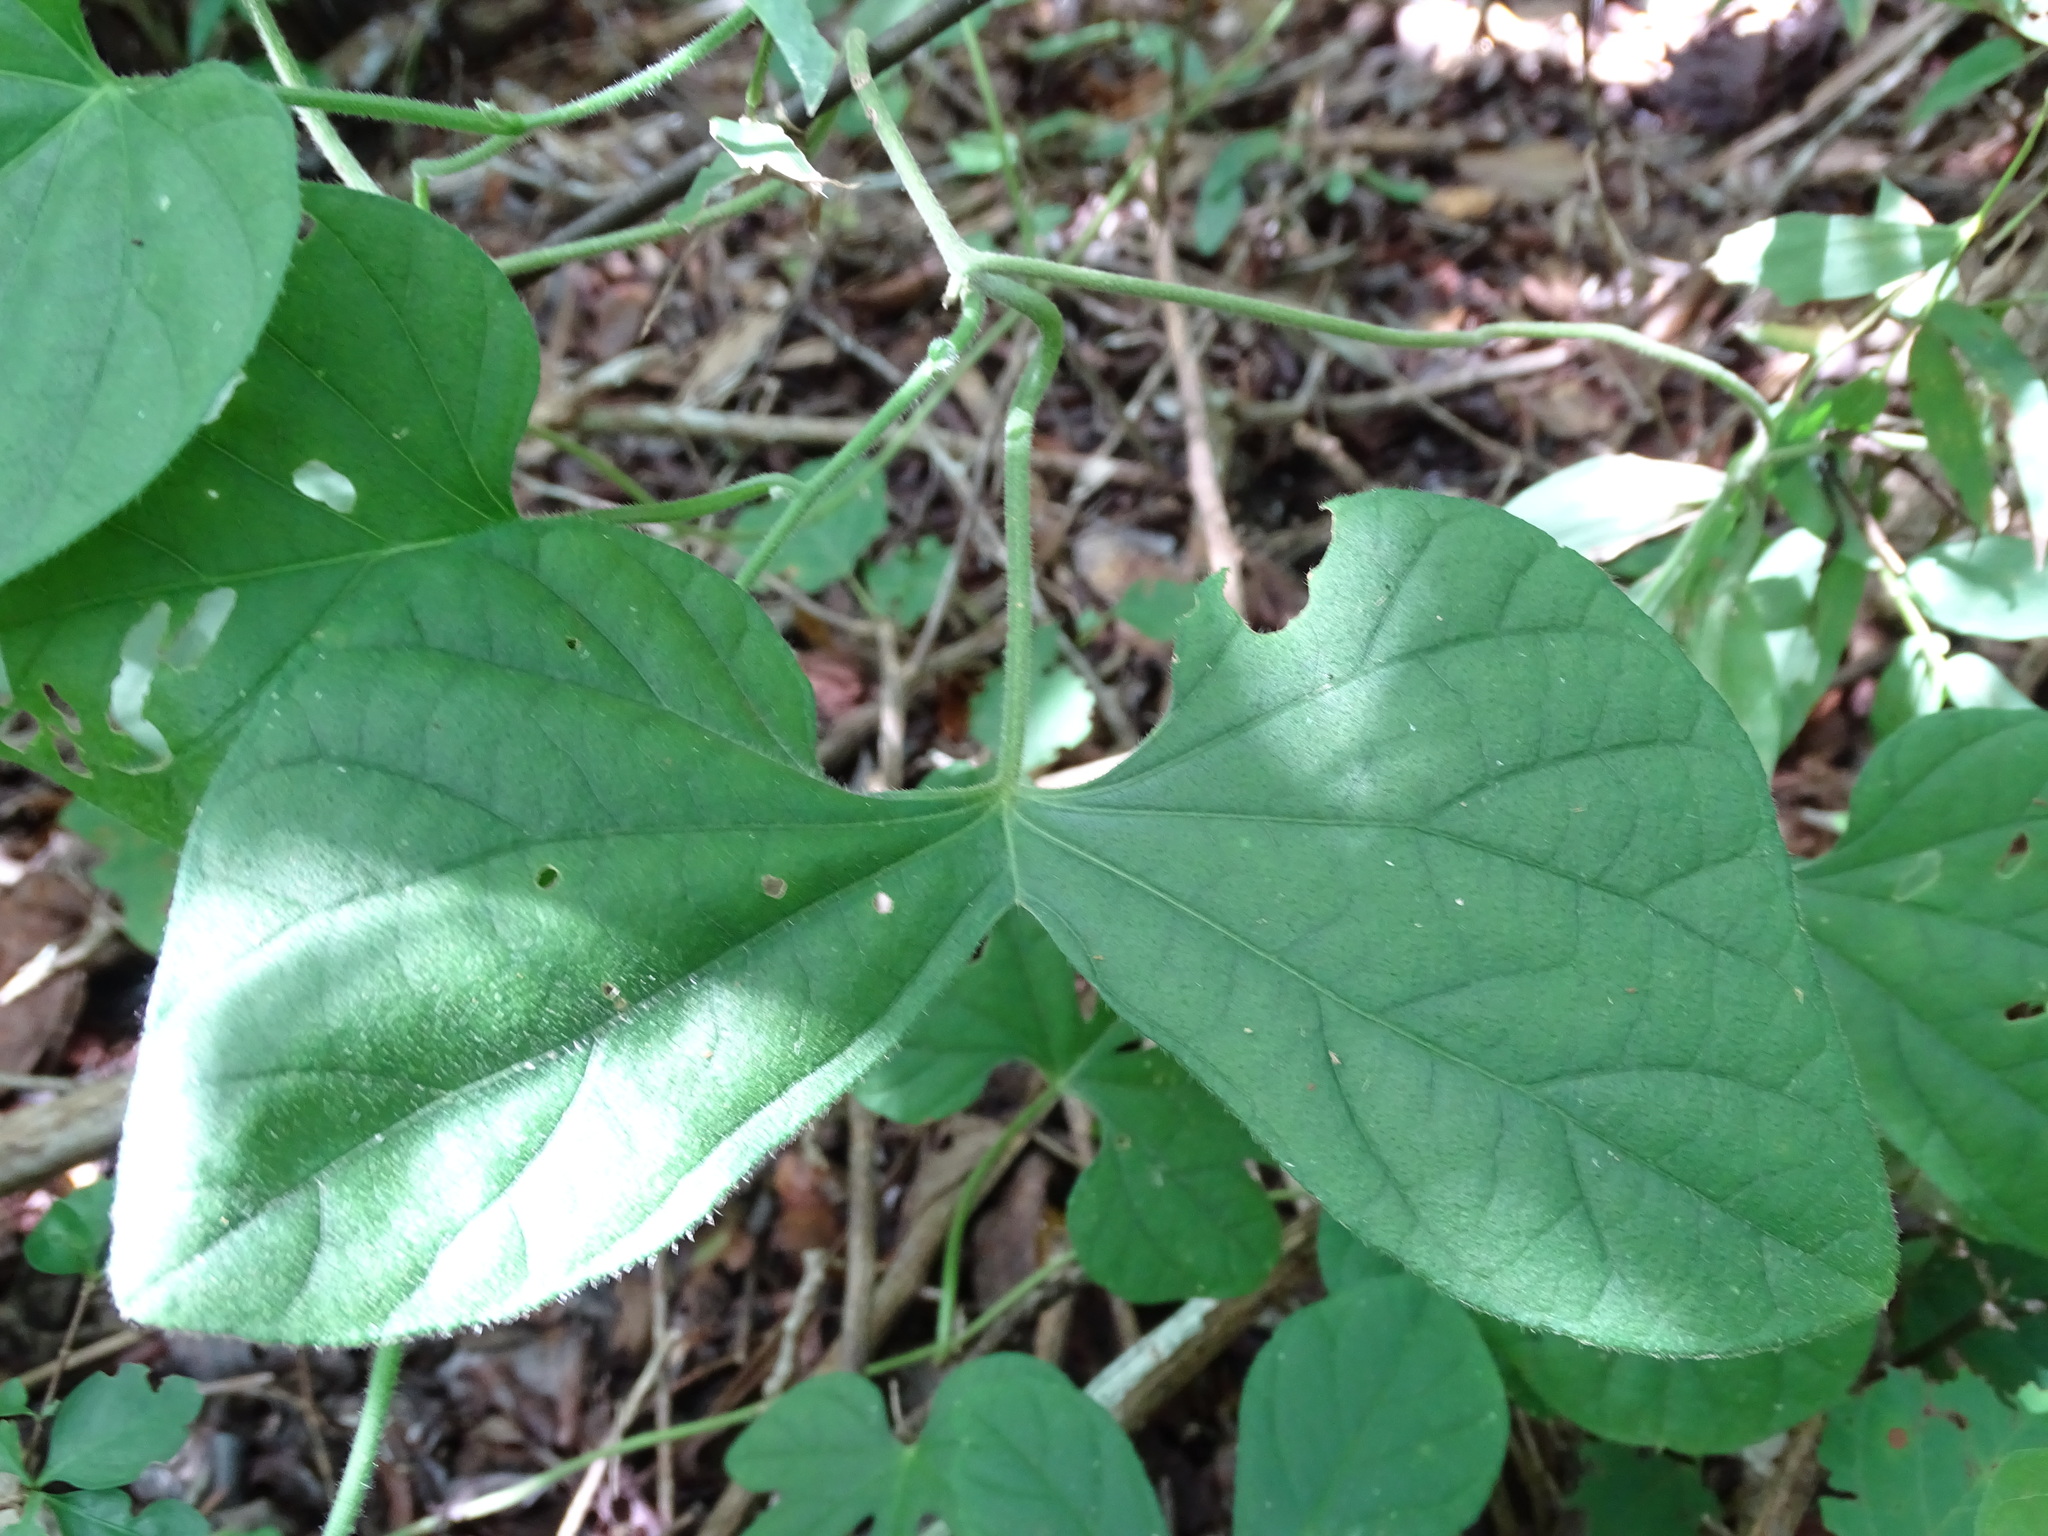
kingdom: Plantae
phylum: Tracheophyta
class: Magnoliopsida
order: Solanales
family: Convolvulaceae
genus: Ipomoea
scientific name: Ipomoea peteri
